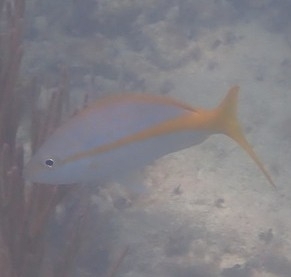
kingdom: Animalia
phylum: Chordata
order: Perciformes
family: Lutjanidae
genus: Ocyurus
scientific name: Ocyurus chrysurus
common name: Yellowtail snapper
